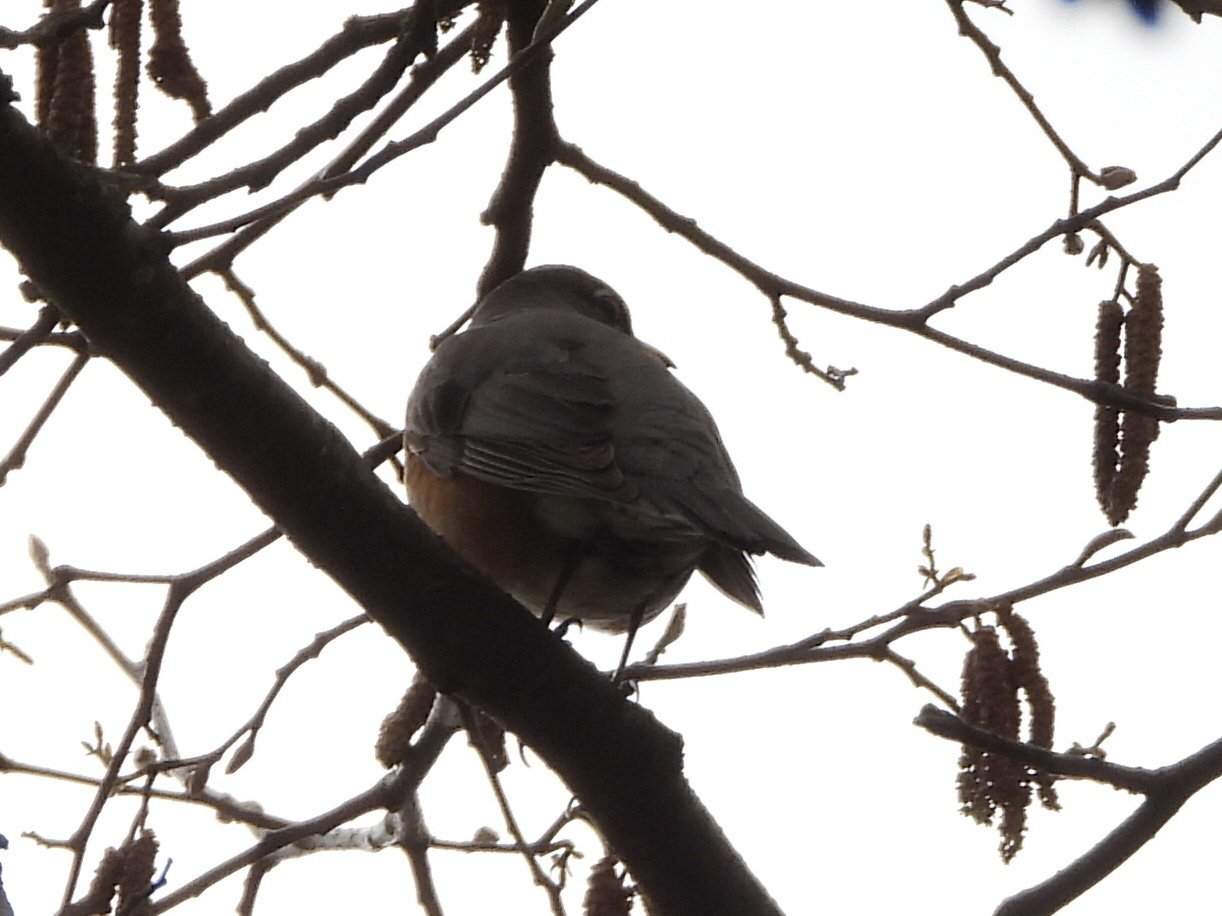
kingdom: Animalia
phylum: Chordata
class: Aves
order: Passeriformes
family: Turdidae
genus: Turdus
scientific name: Turdus migratorius
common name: American robin
